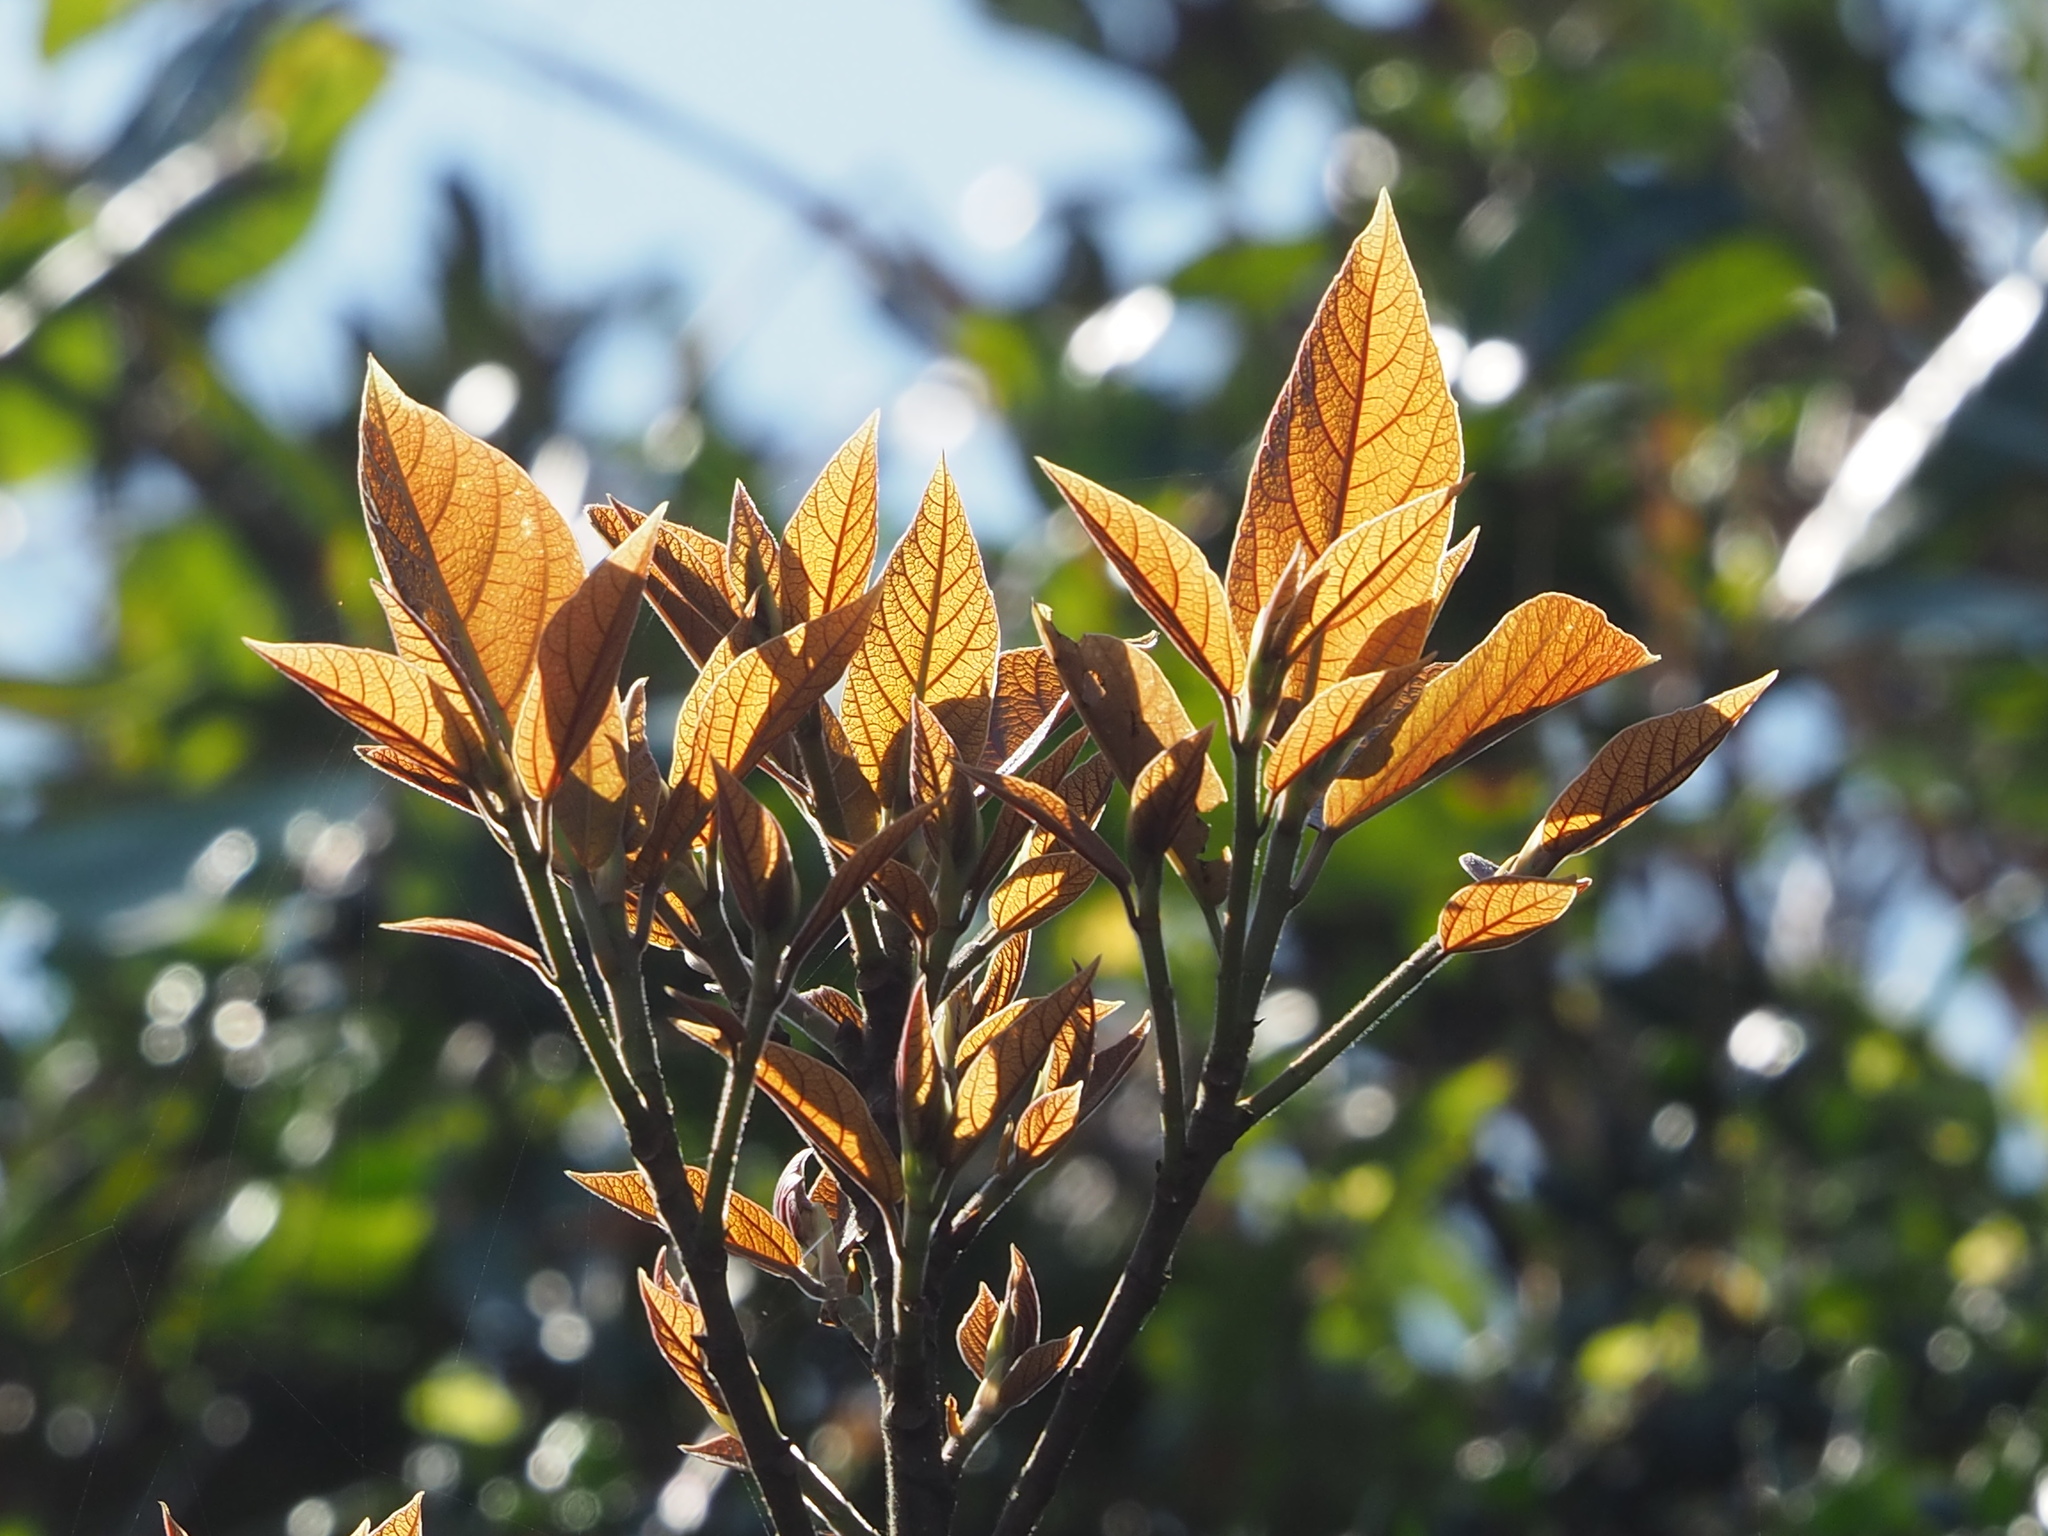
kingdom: Plantae
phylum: Tracheophyta
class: Magnoliopsida
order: Rosales
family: Moraceae
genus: Ficus
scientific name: Ficus erecta
